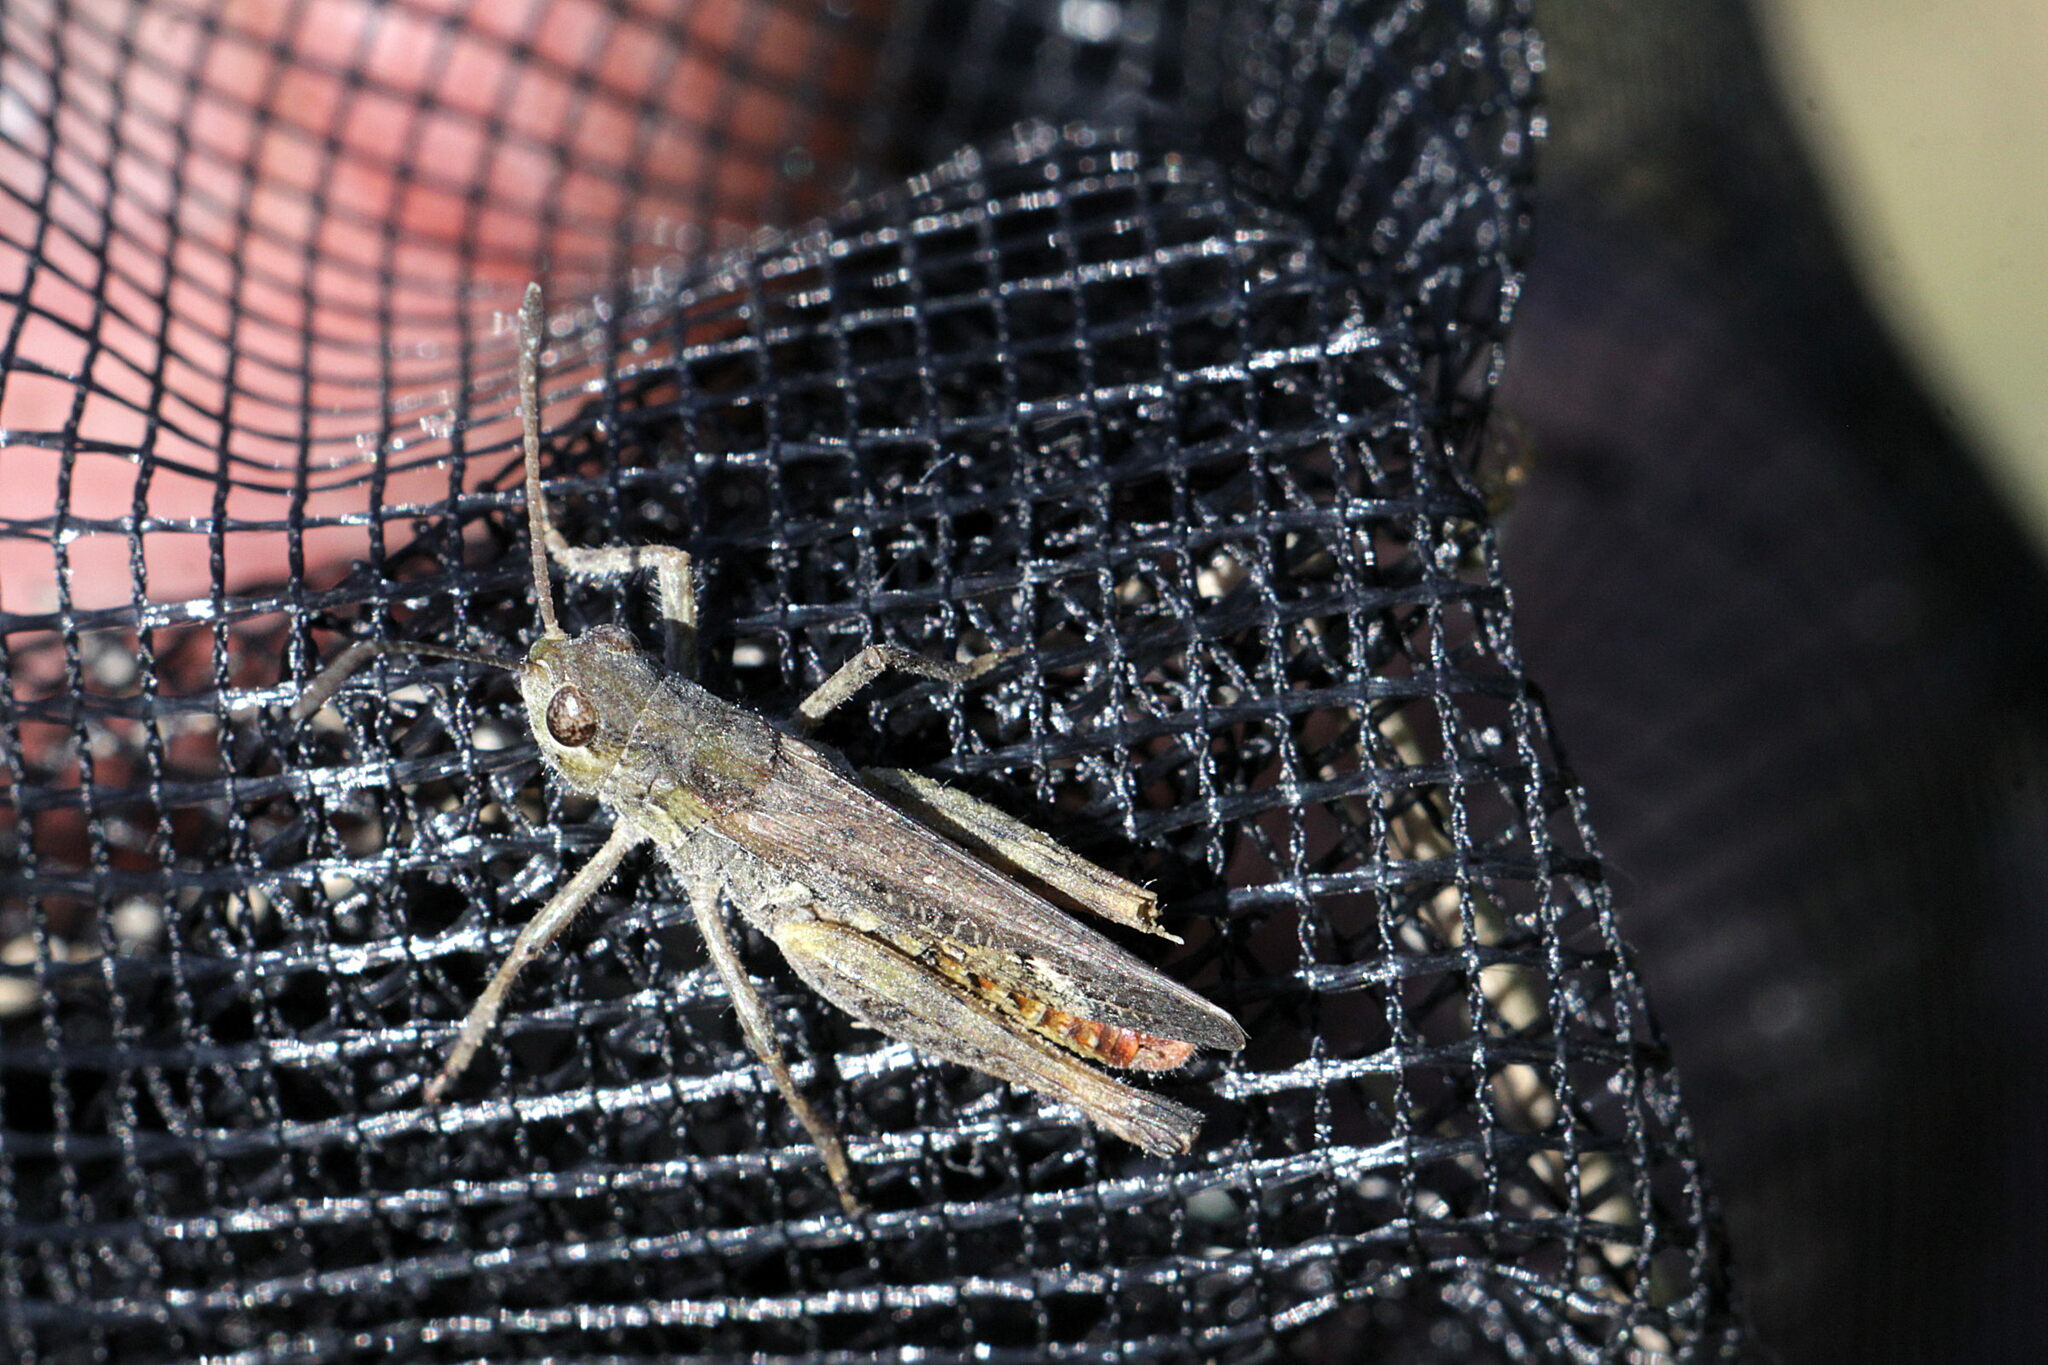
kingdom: Animalia
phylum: Arthropoda
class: Insecta
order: Orthoptera
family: Acrididae
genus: Myrmeleotettix
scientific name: Myrmeleotettix maculatus
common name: Mottled grasshopper
